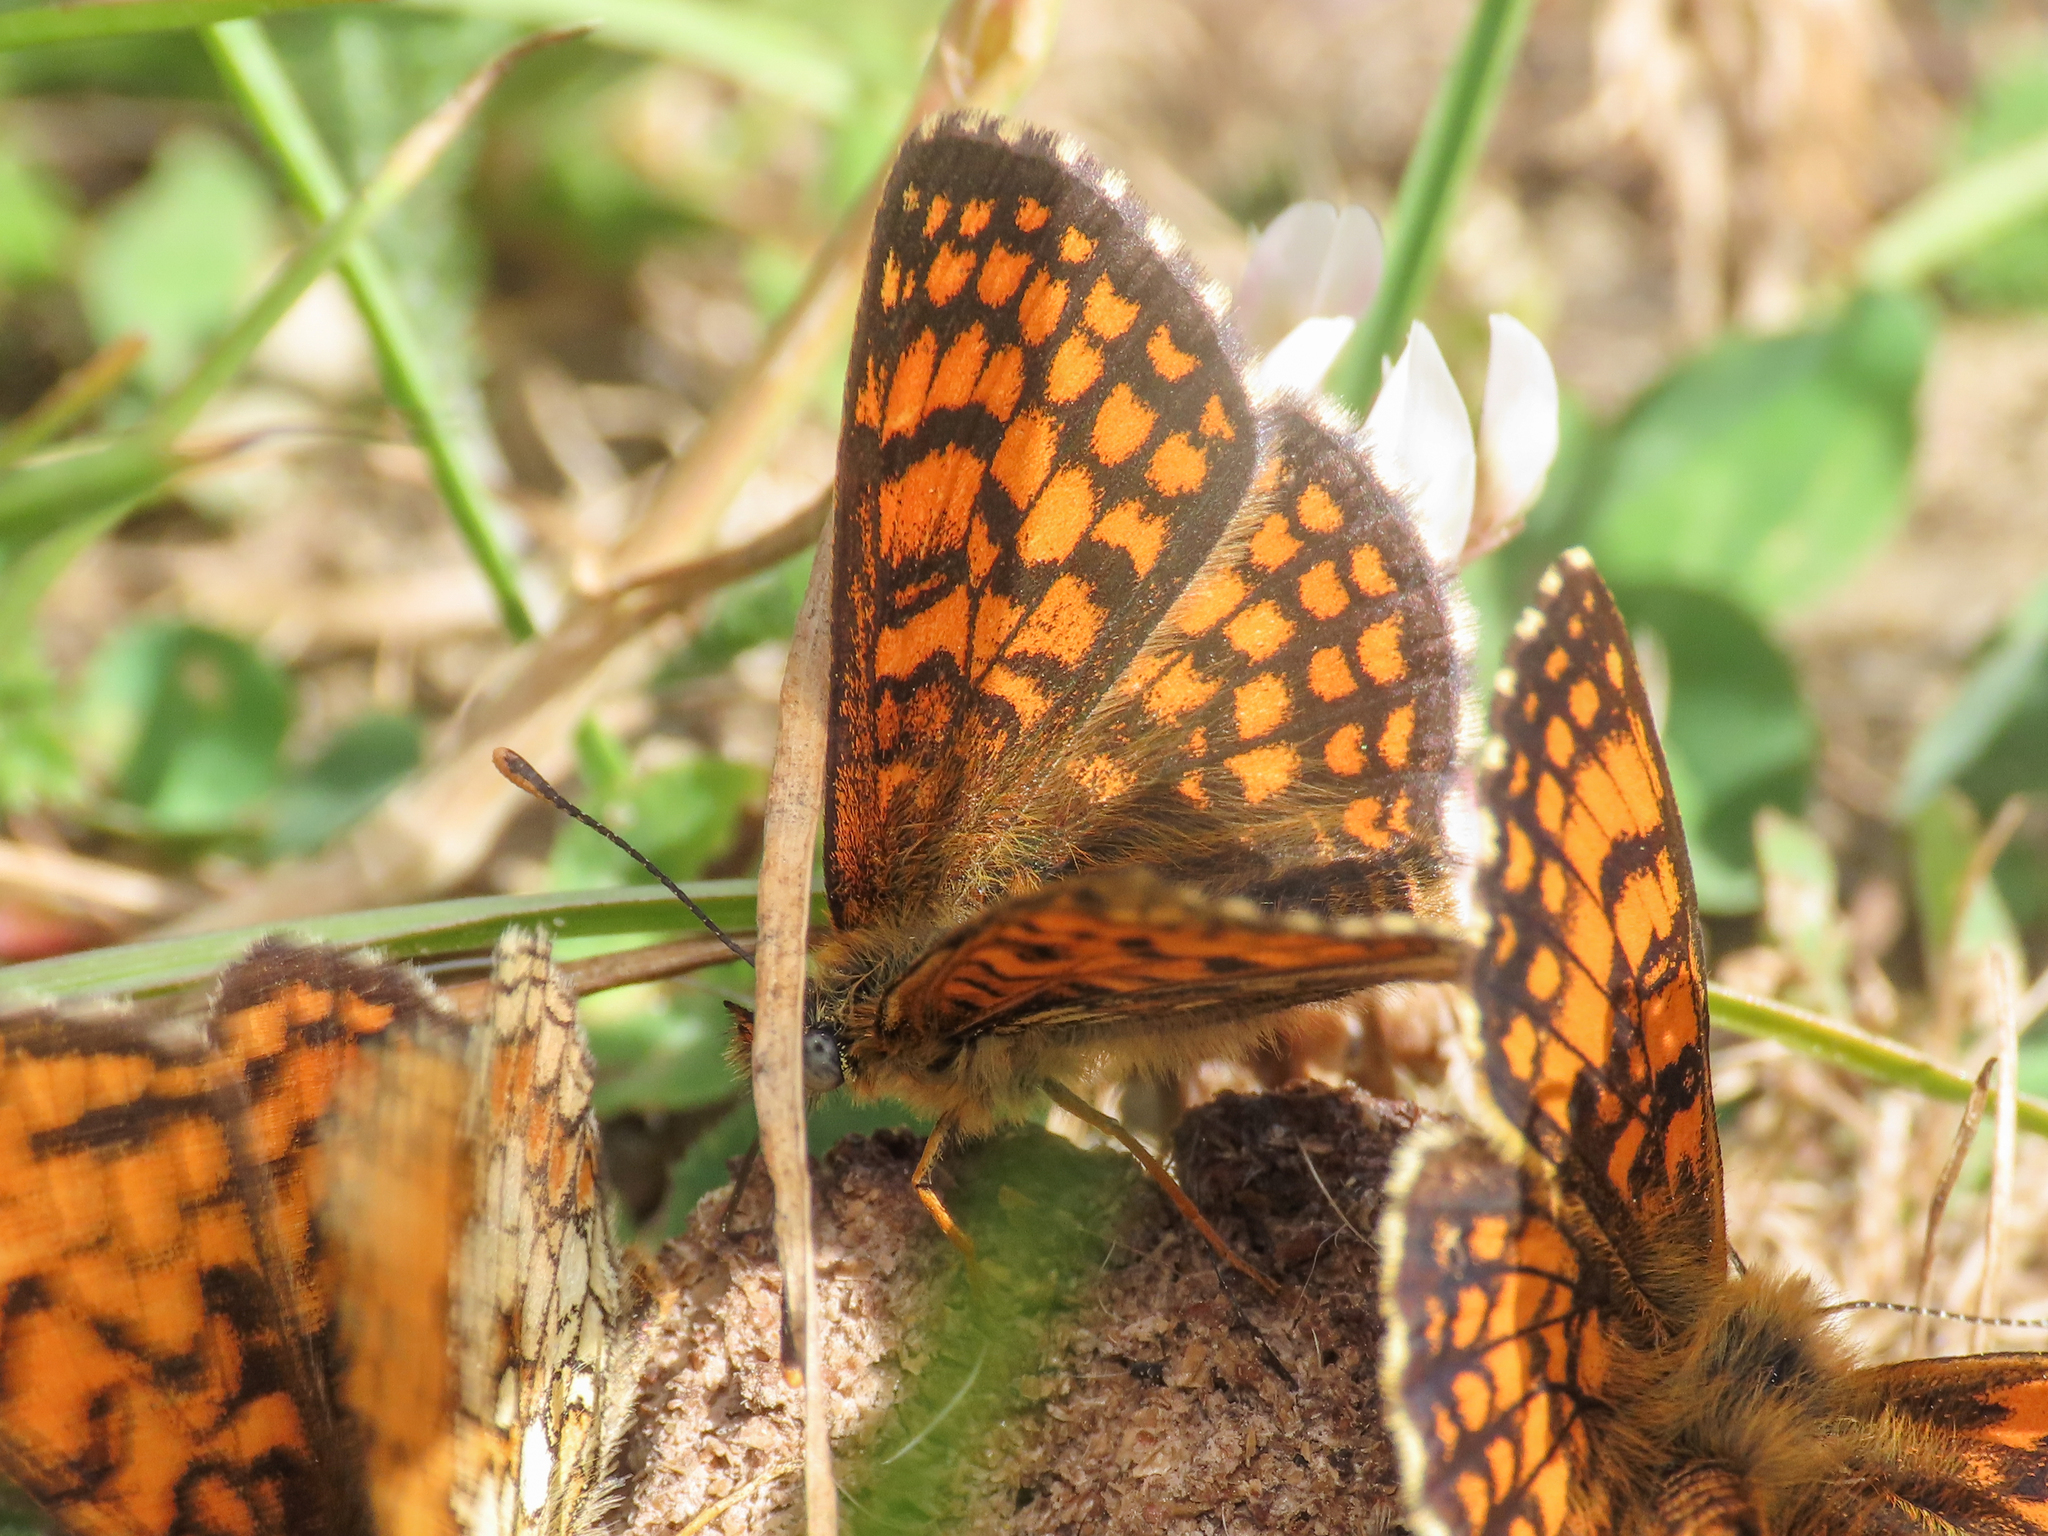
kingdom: Animalia
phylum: Arthropoda
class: Insecta
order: Lepidoptera
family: Nymphalidae
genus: Mellicta
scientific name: Mellicta athalia
